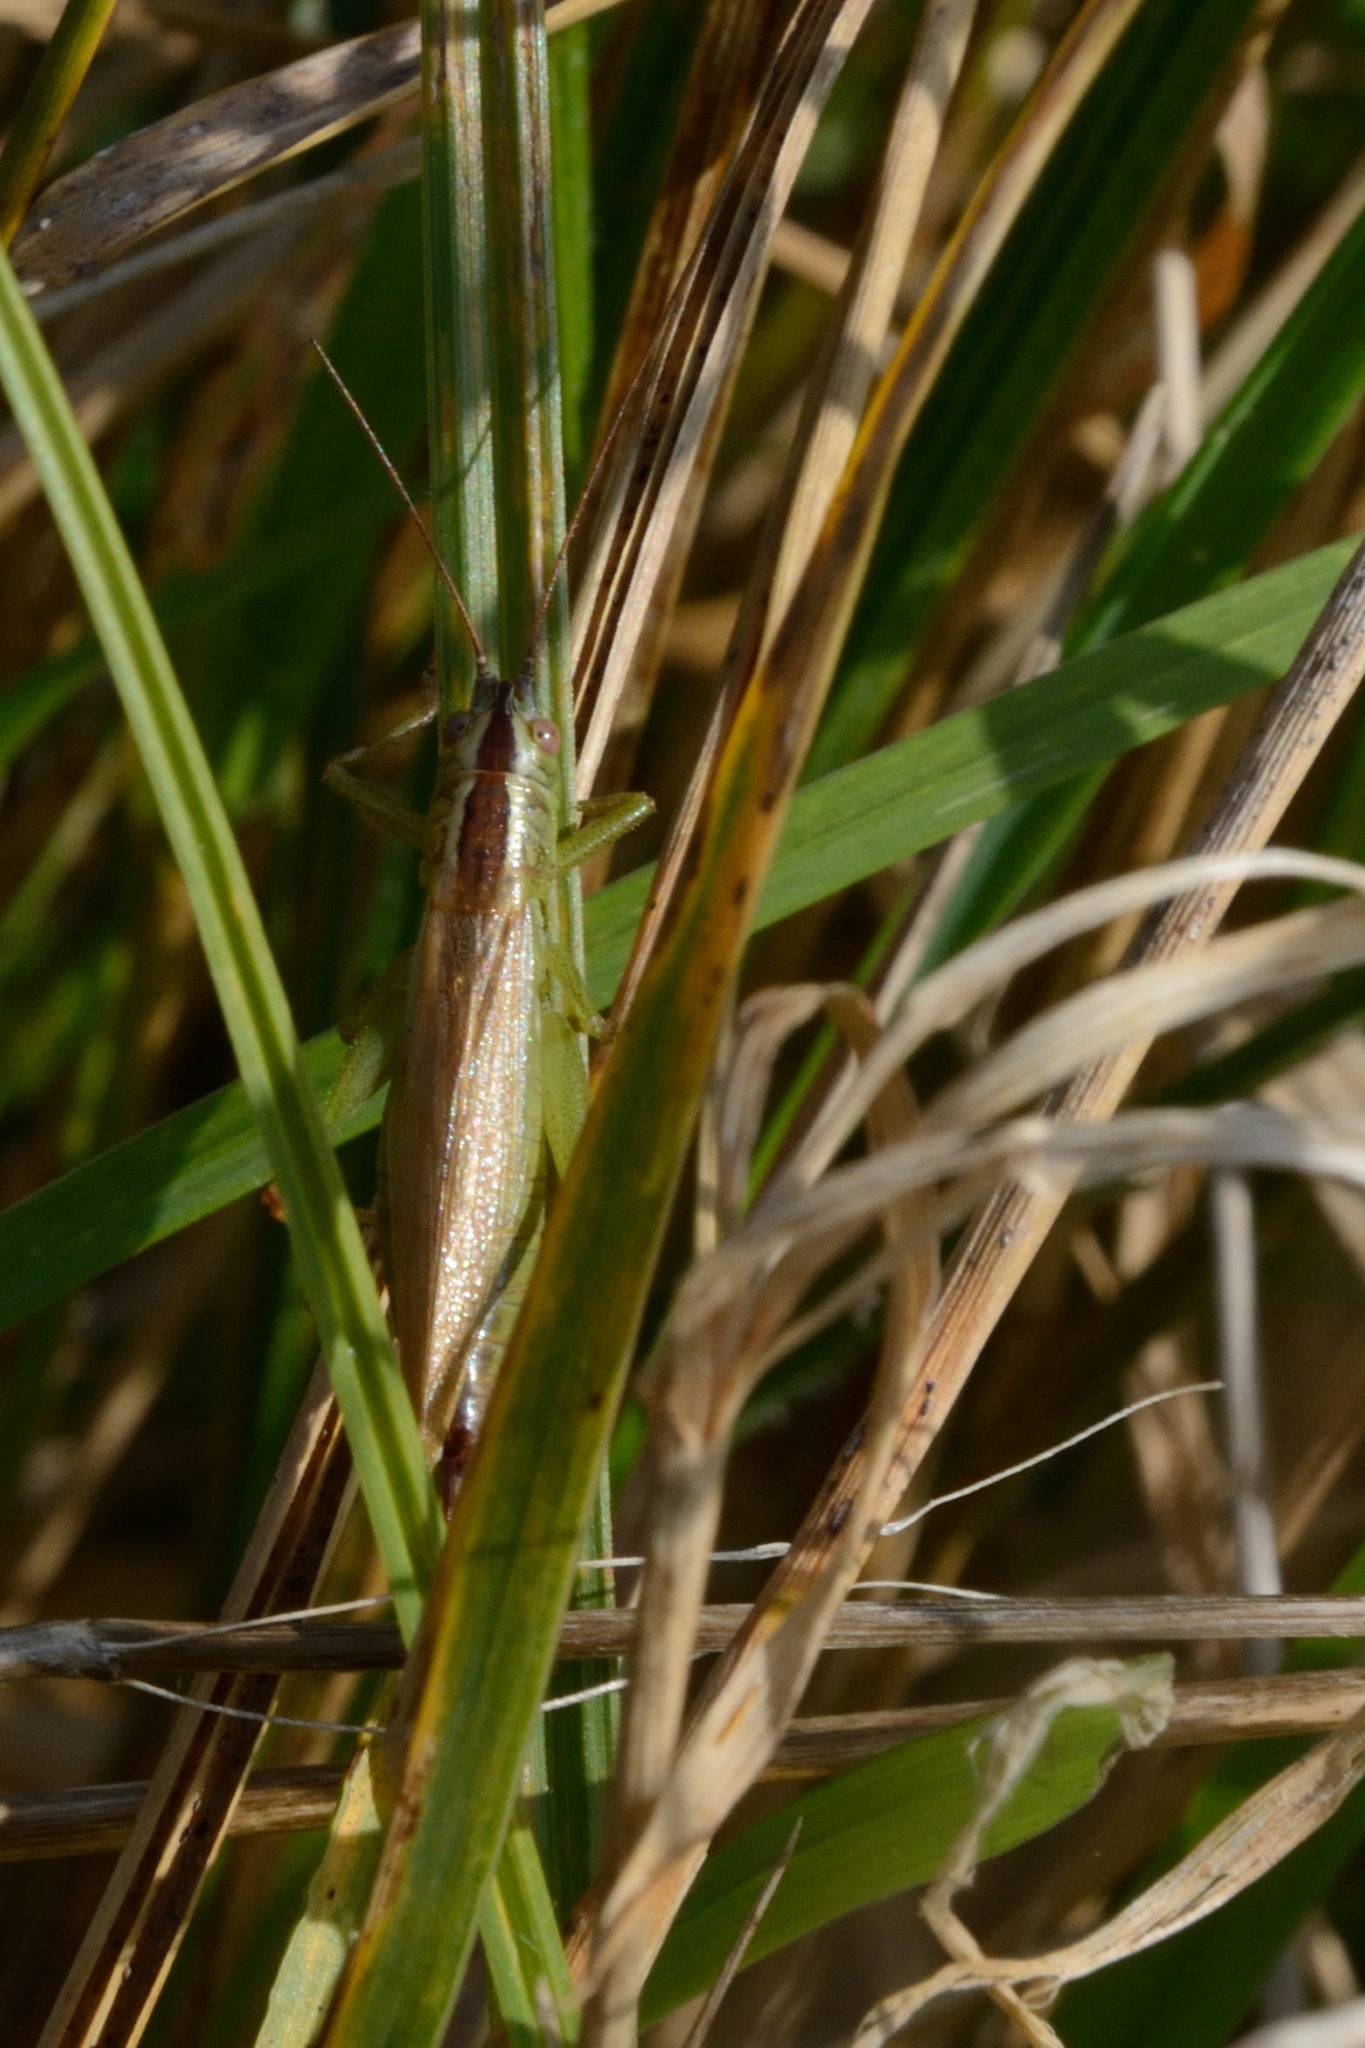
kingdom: Animalia
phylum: Arthropoda
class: Insecta
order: Orthoptera
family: Tettigoniidae
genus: Conocephalus
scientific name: Conocephalus fuscus
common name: Long-winged conehead
